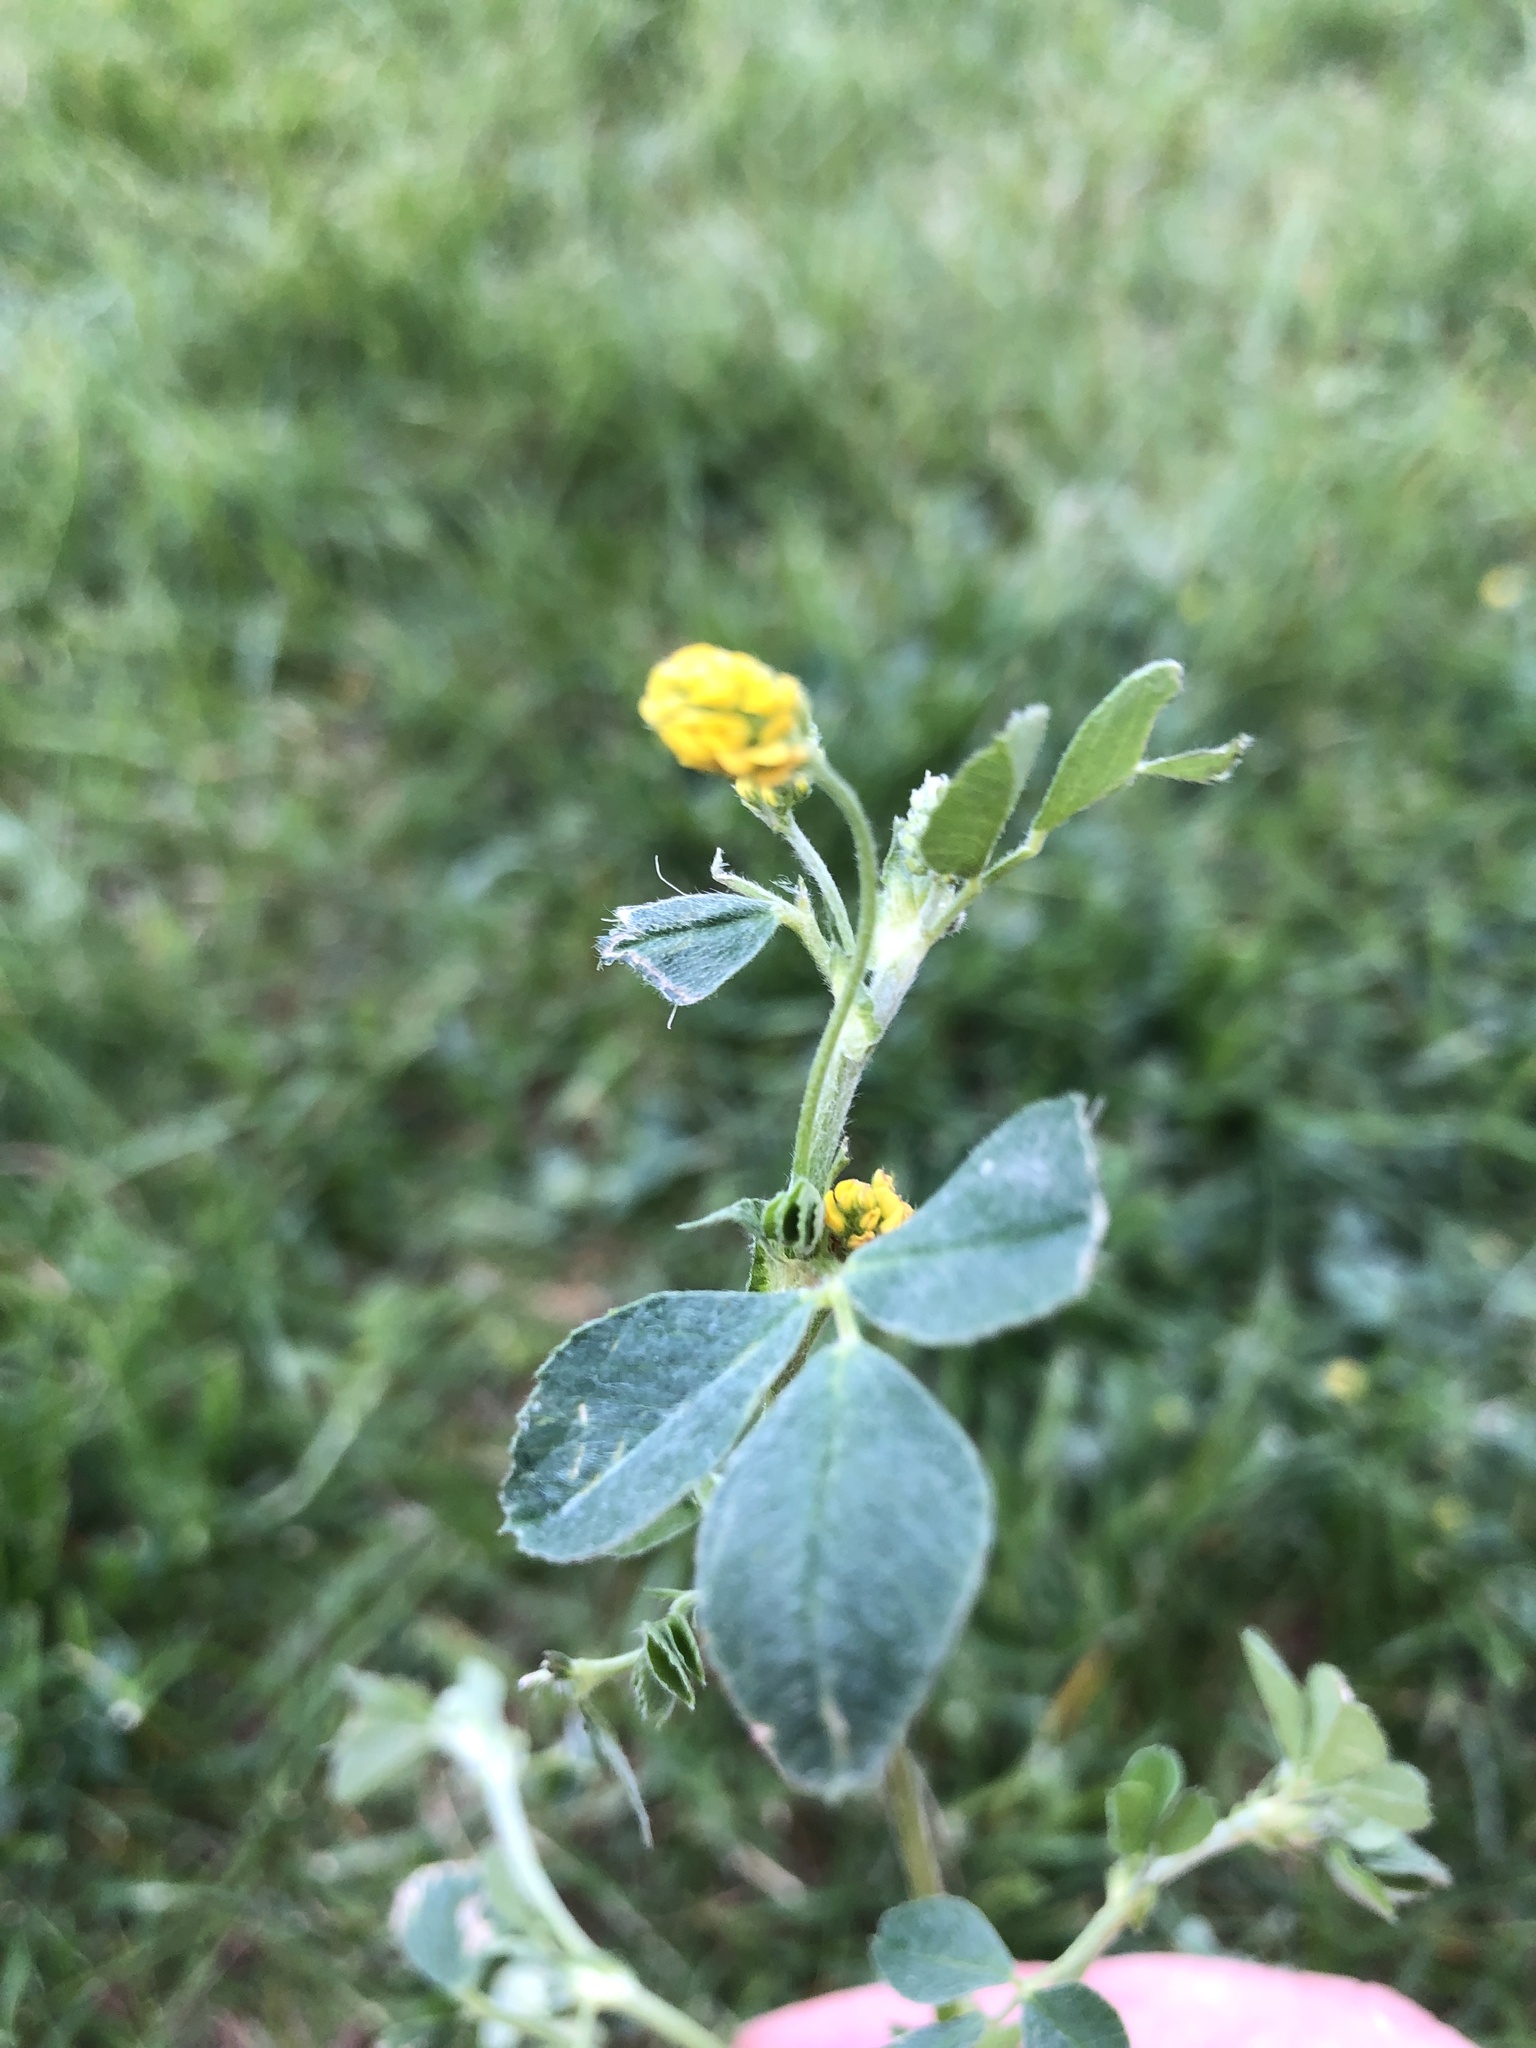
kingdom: Plantae
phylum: Tracheophyta
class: Magnoliopsida
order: Fabales
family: Fabaceae
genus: Medicago
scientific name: Medicago lupulina
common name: Black medick
